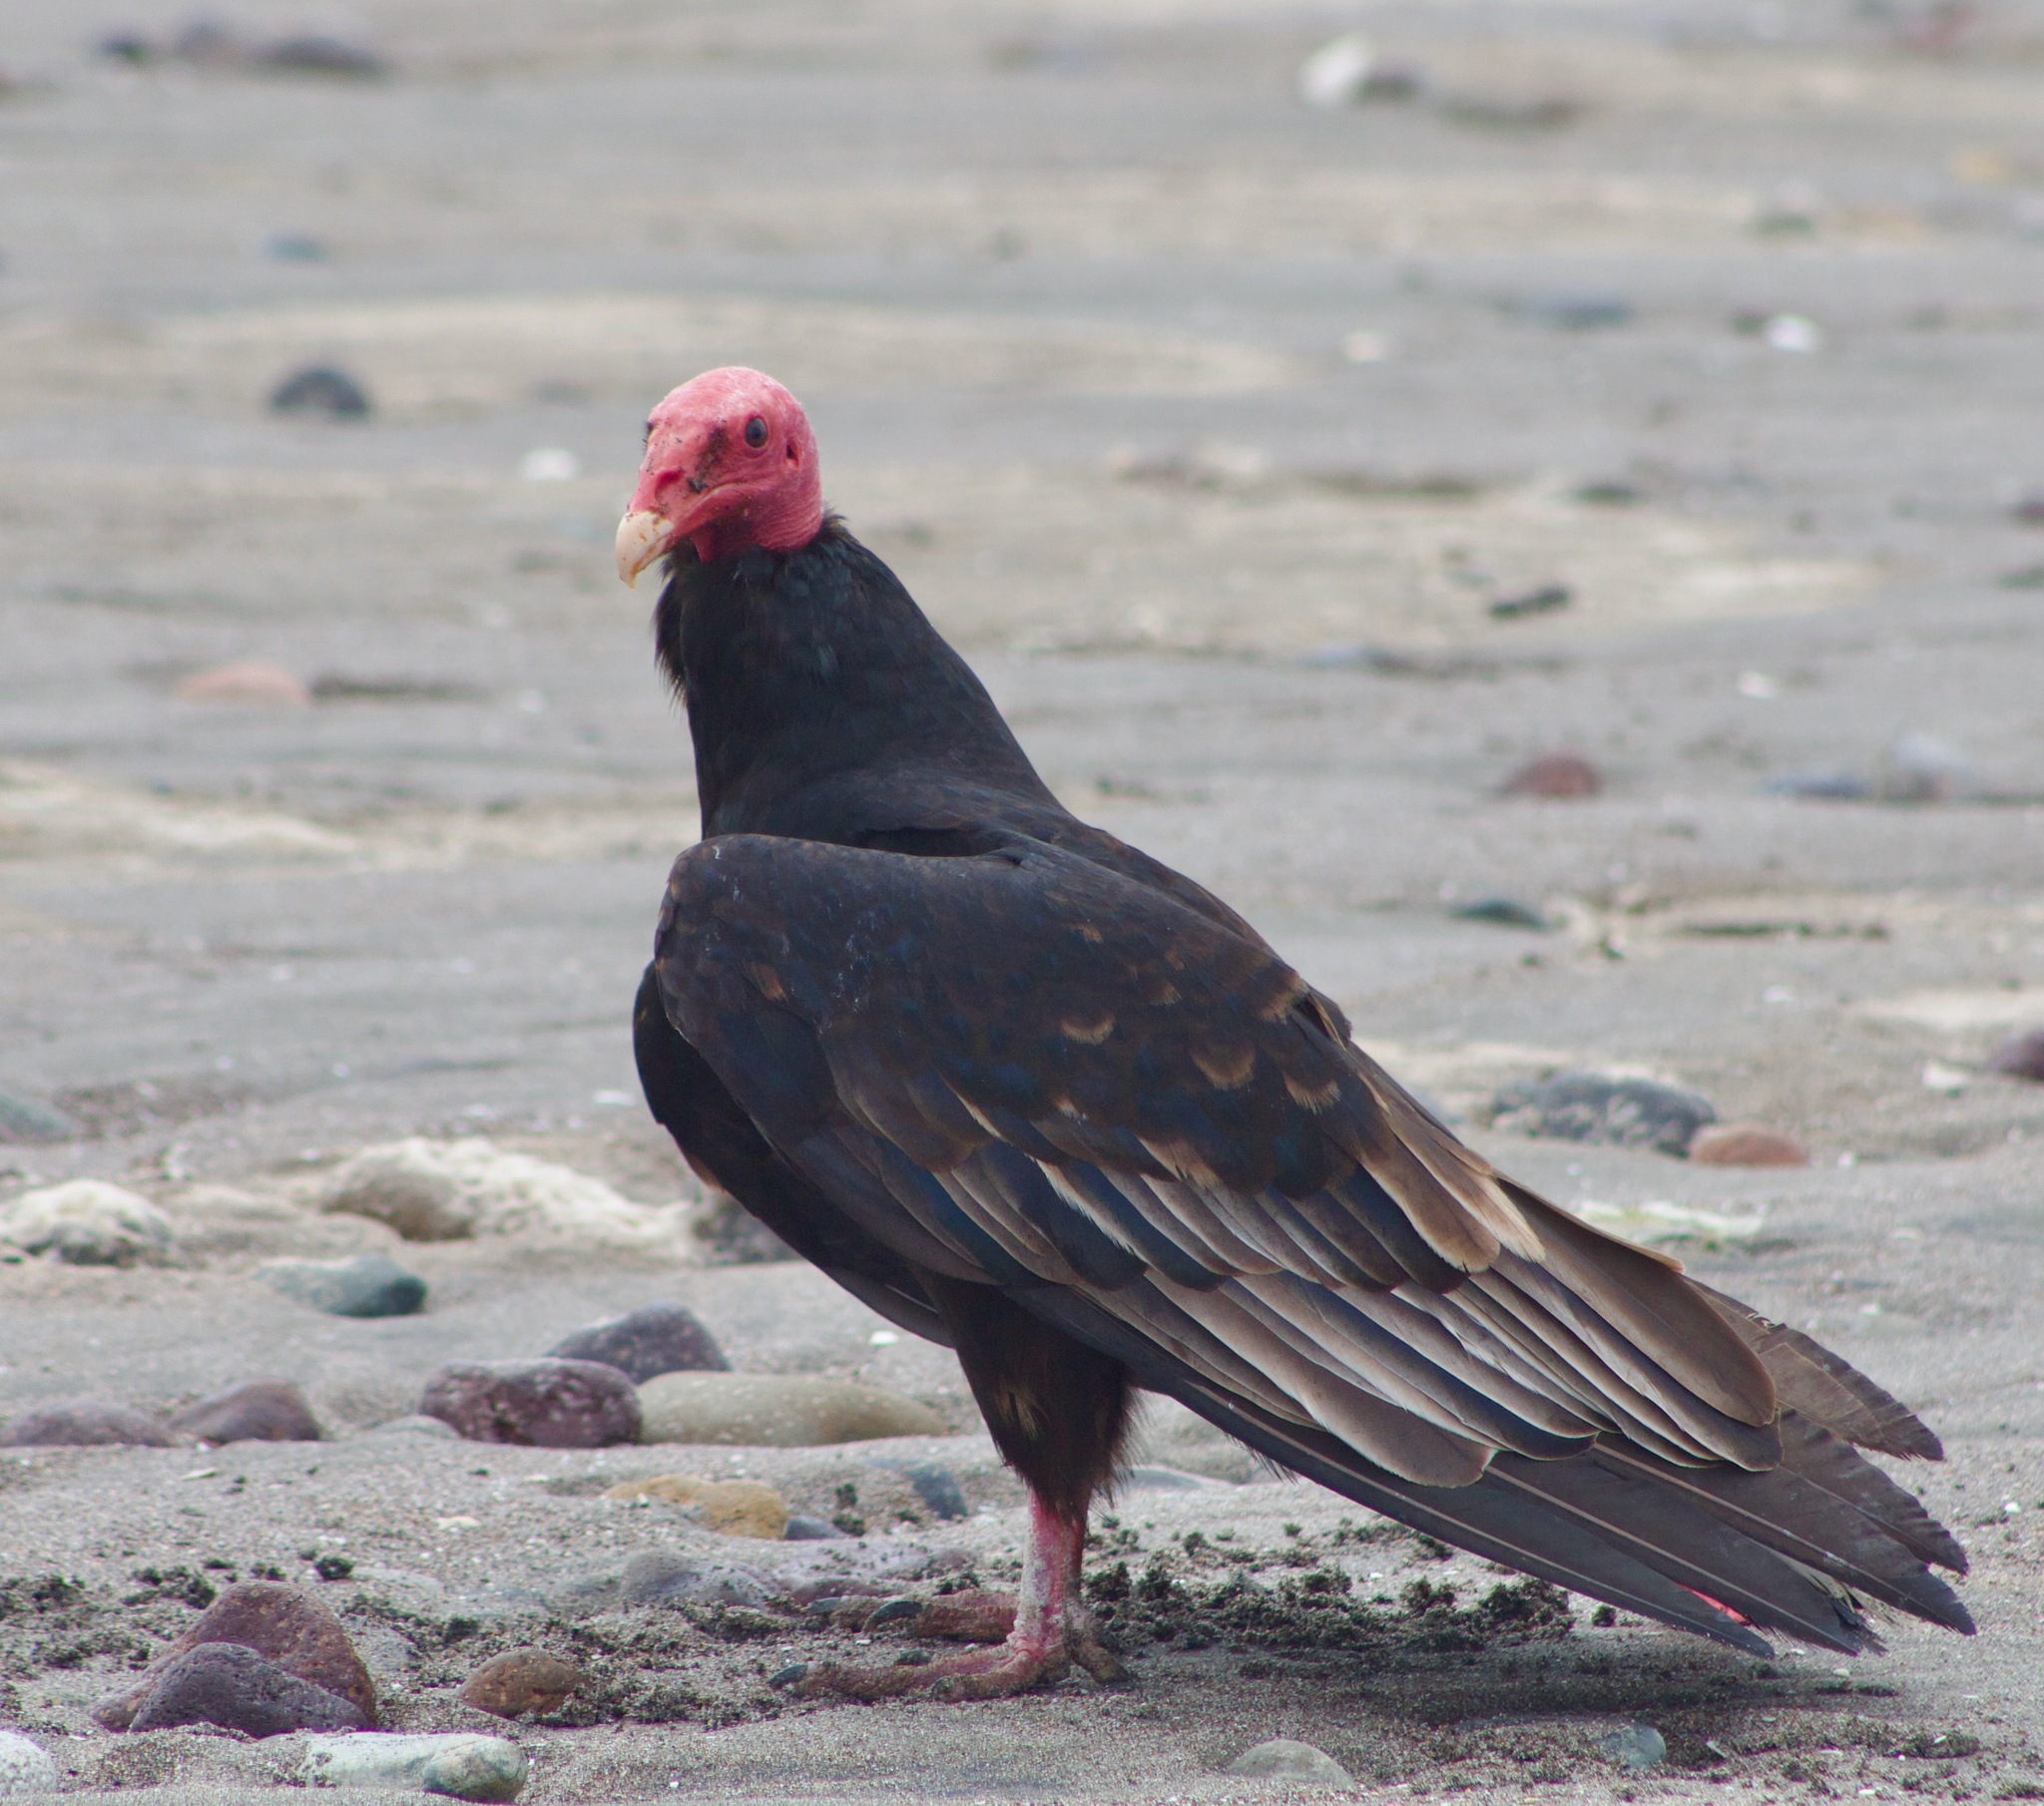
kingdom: Animalia
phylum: Chordata
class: Aves
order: Accipitriformes
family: Cathartidae
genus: Cathartes
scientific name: Cathartes aura
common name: Turkey vulture
